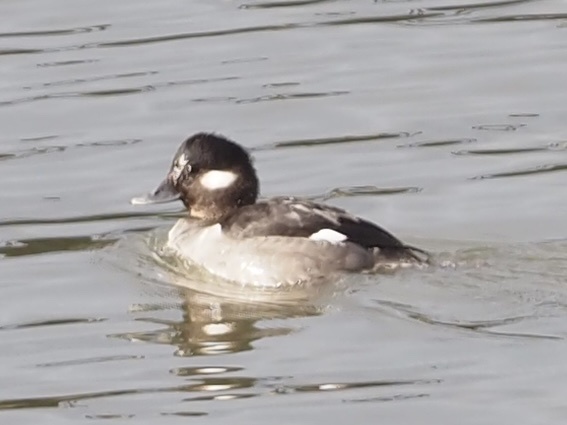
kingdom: Animalia
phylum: Chordata
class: Aves
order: Anseriformes
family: Anatidae
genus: Bucephala
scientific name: Bucephala albeola
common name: Bufflehead
